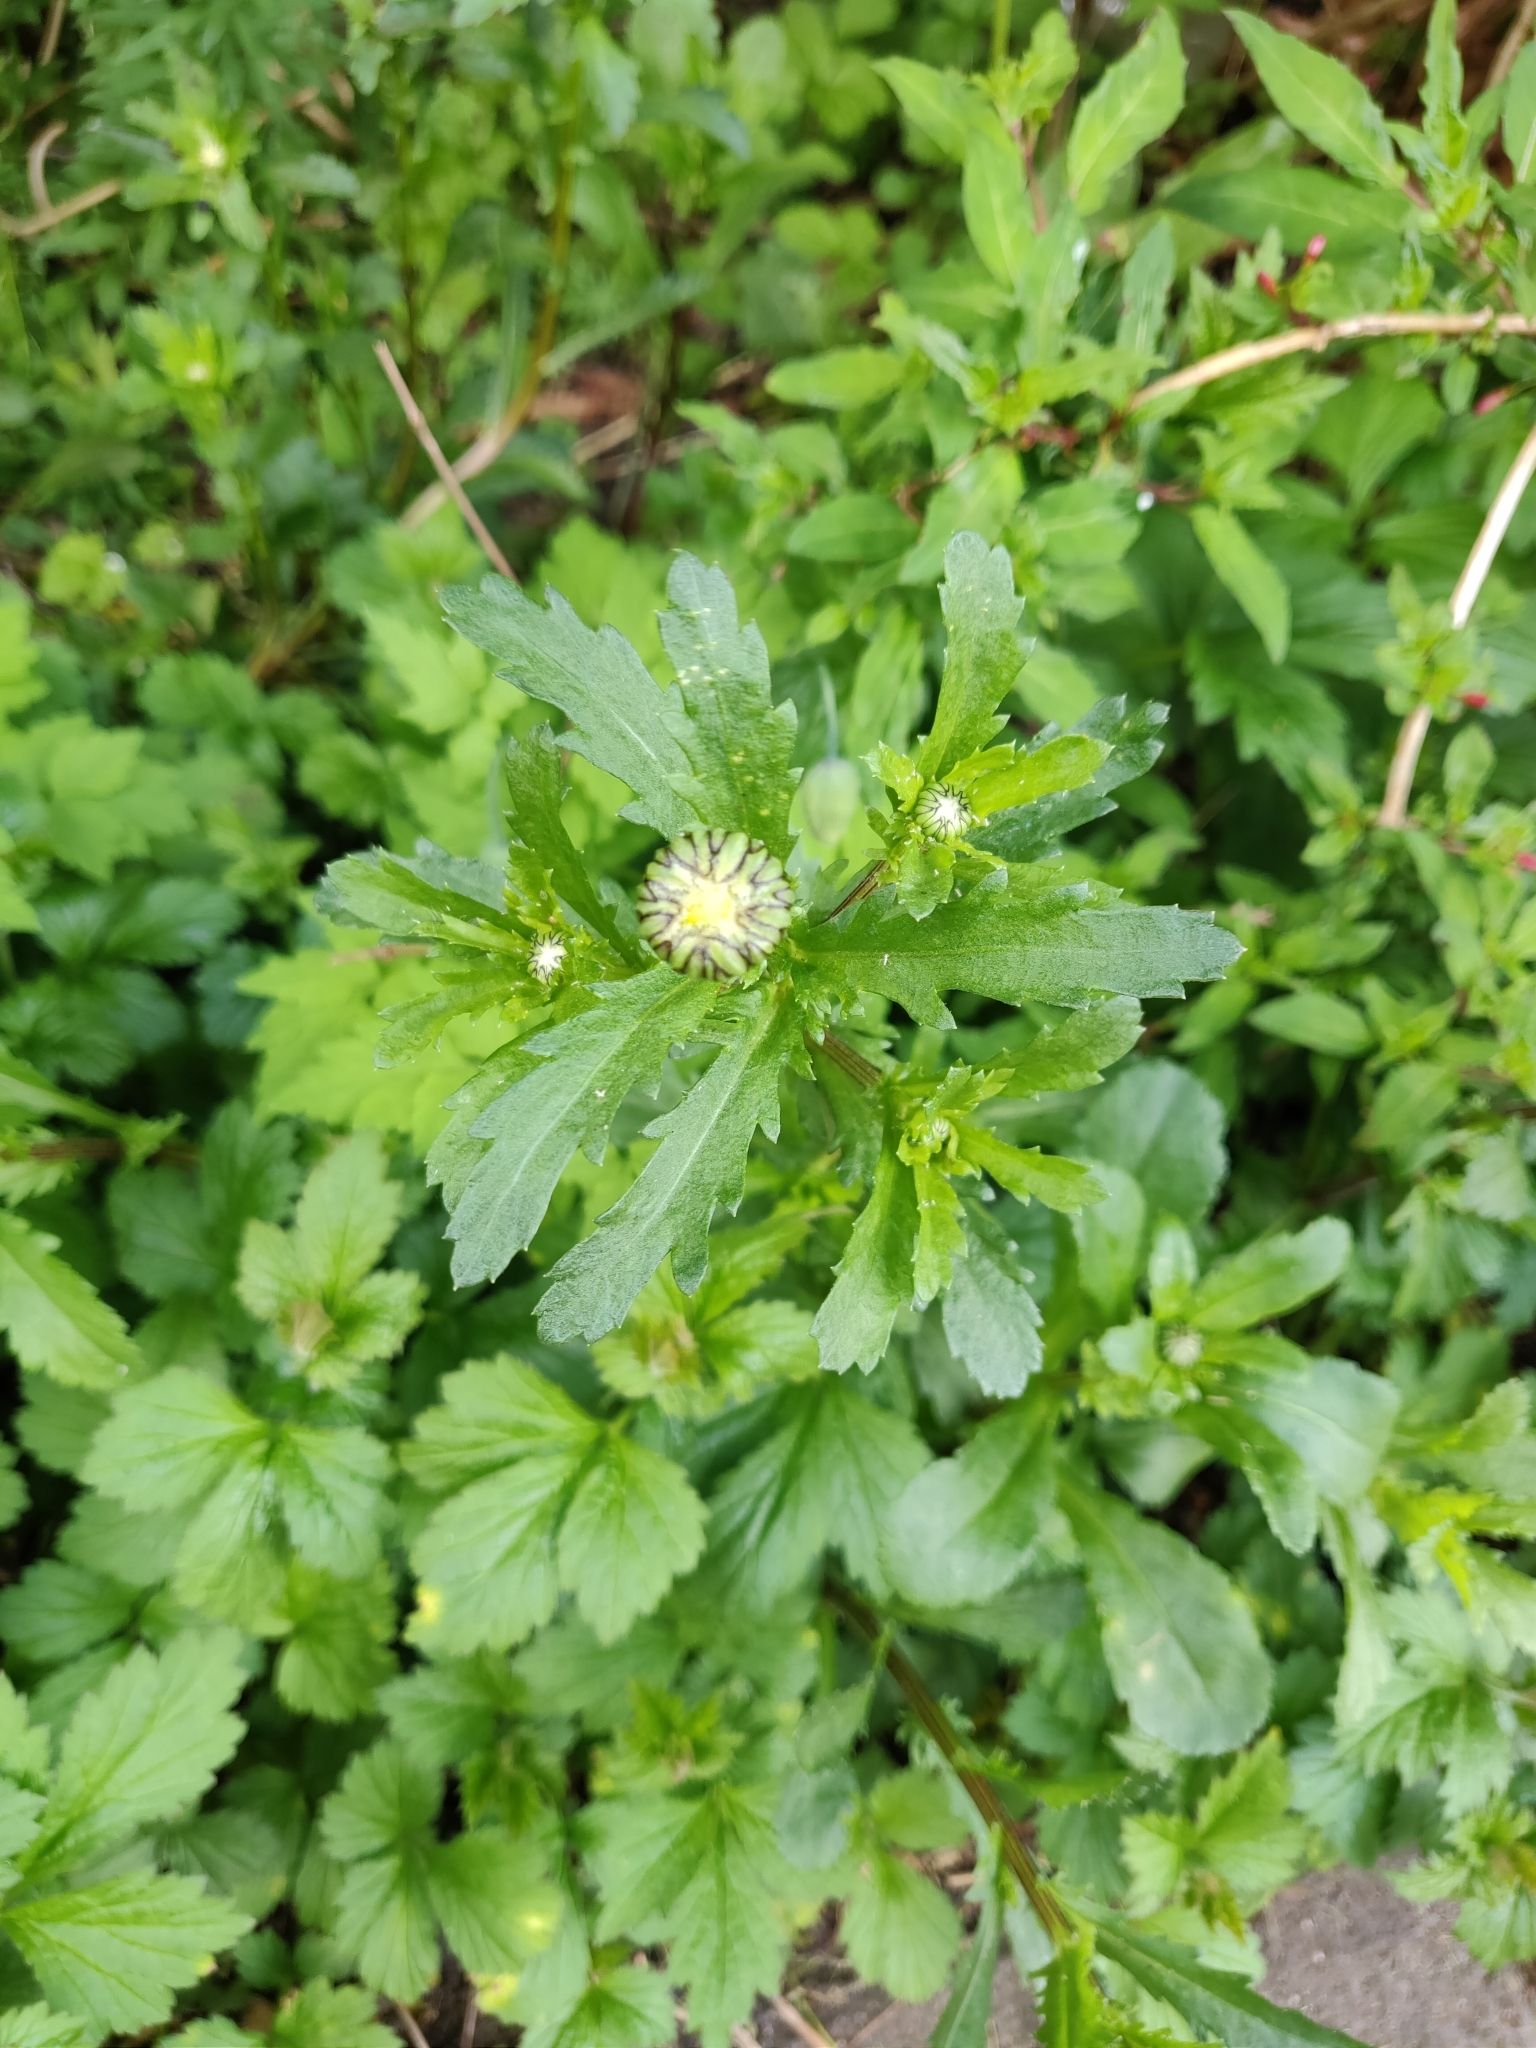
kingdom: Plantae
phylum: Tracheophyta
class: Magnoliopsida
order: Asterales
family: Asteraceae
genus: Leucanthemum
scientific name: Leucanthemum vulgare
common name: Oxeye daisy
